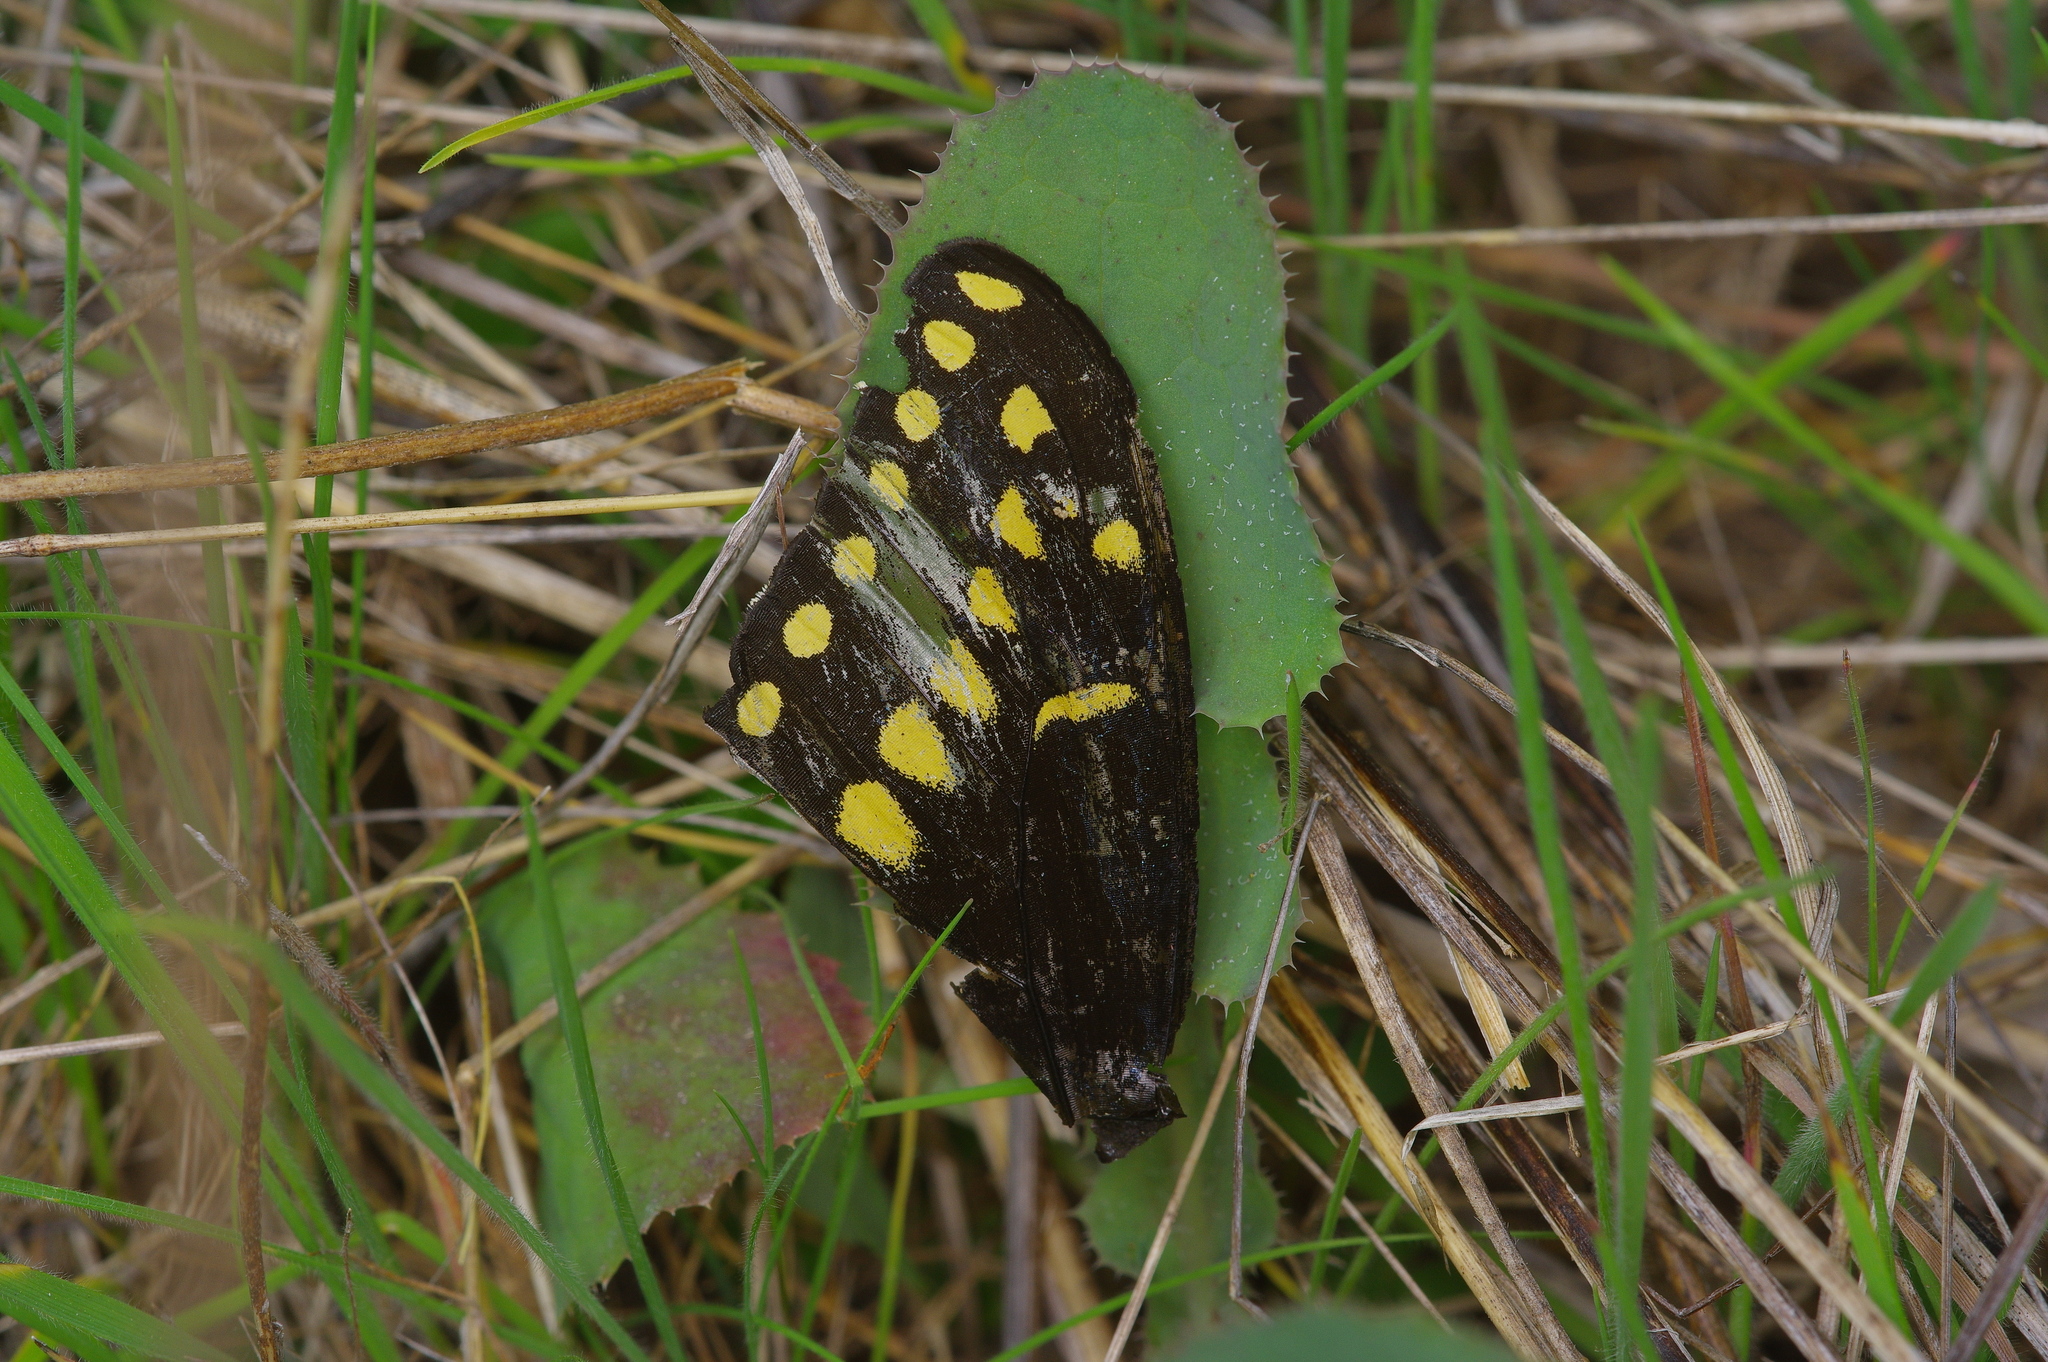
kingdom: Animalia
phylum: Arthropoda
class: Insecta
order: Lepidoptera
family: Papilionidae
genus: Papilio
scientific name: Papilio polyxenes
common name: Black swallowtail
